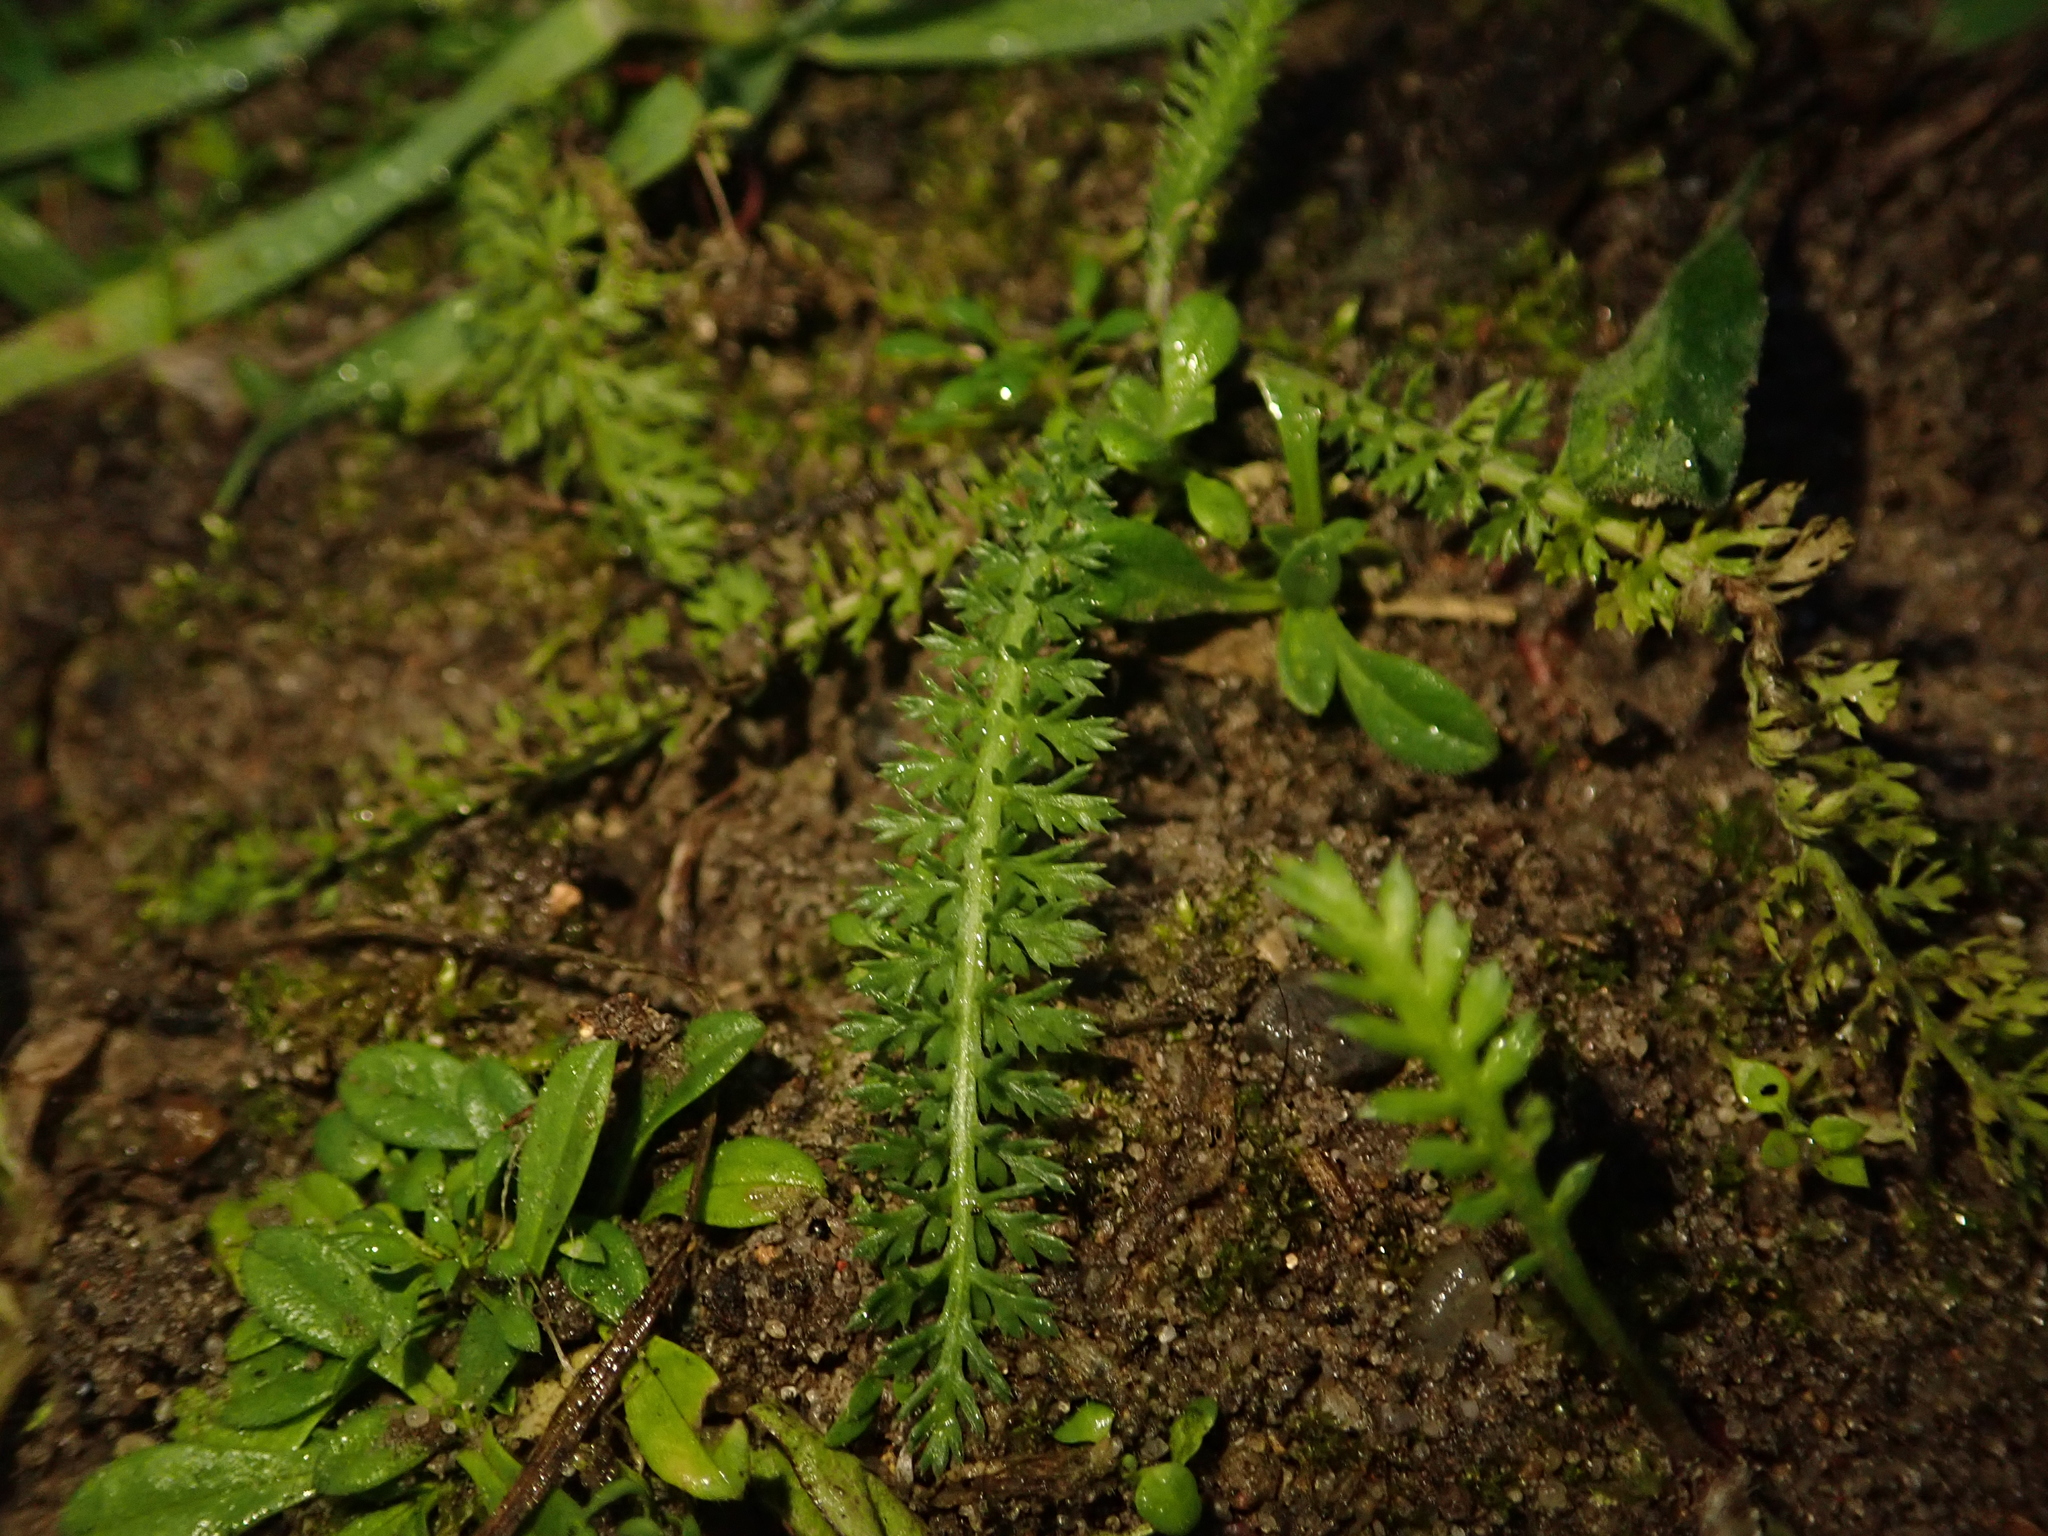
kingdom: Plantae
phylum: Tracheophyta
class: Magnoliopsida
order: Asterales
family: Asteraceae
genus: Achillea
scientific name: Achillea millefolium
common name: Yarrow
